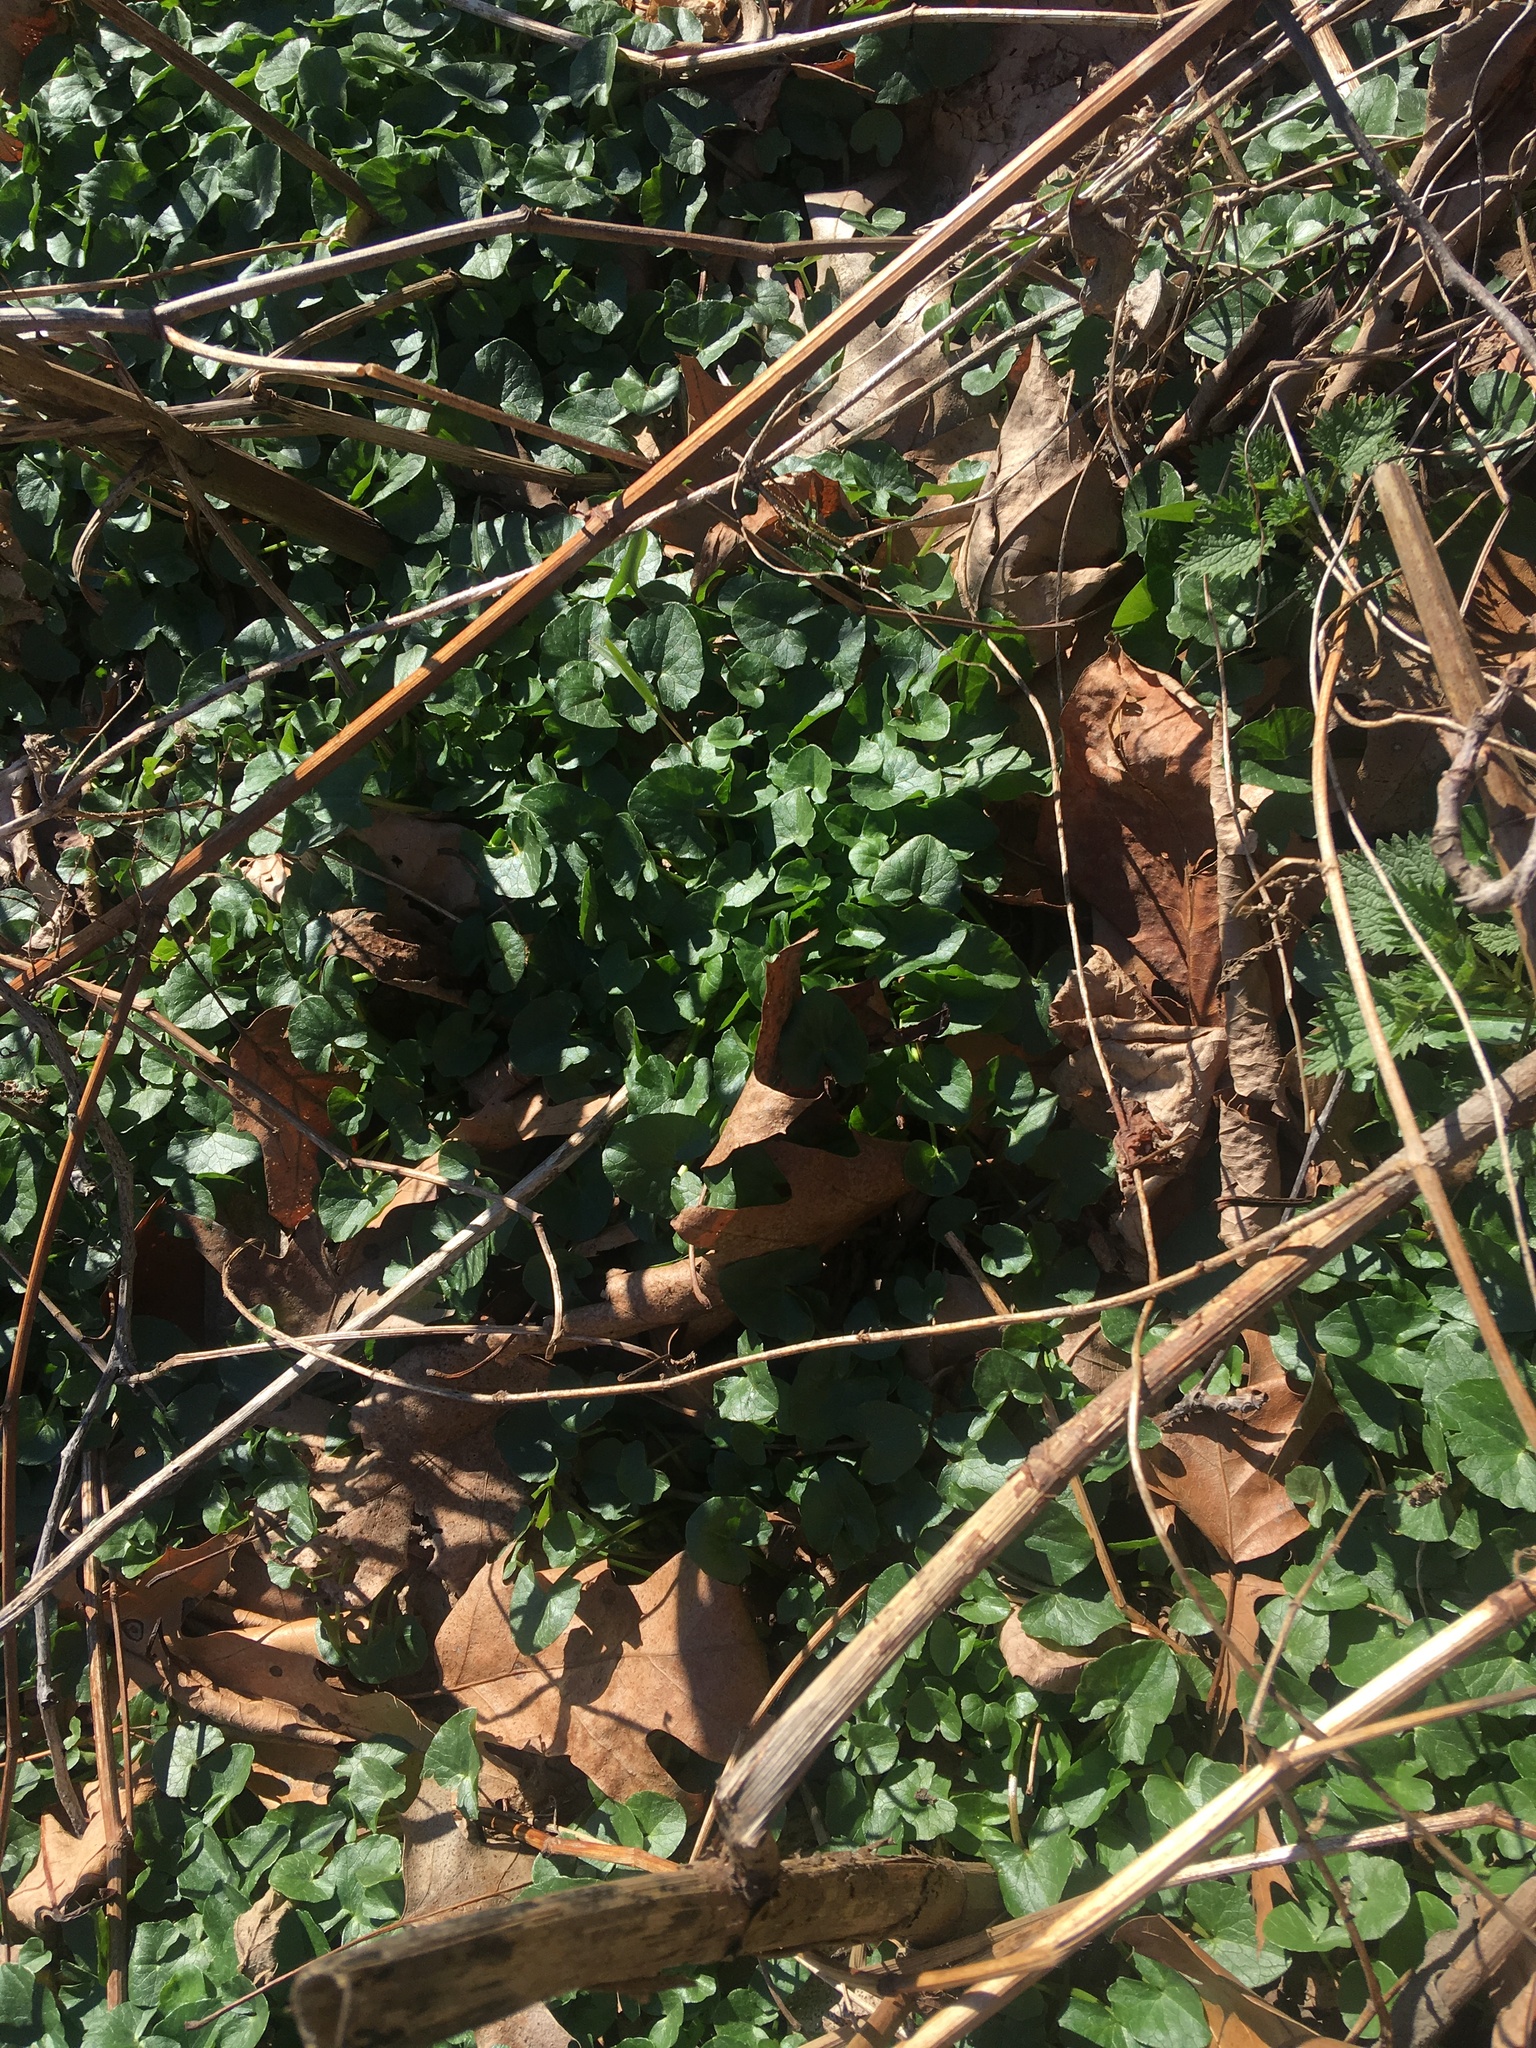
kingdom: Plantae
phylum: Tracheophyta
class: Magnoliopsida
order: Ranunculales
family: Ranunculaceae
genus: Ficaria
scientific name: Ficaria verna
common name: Lesser celandine
